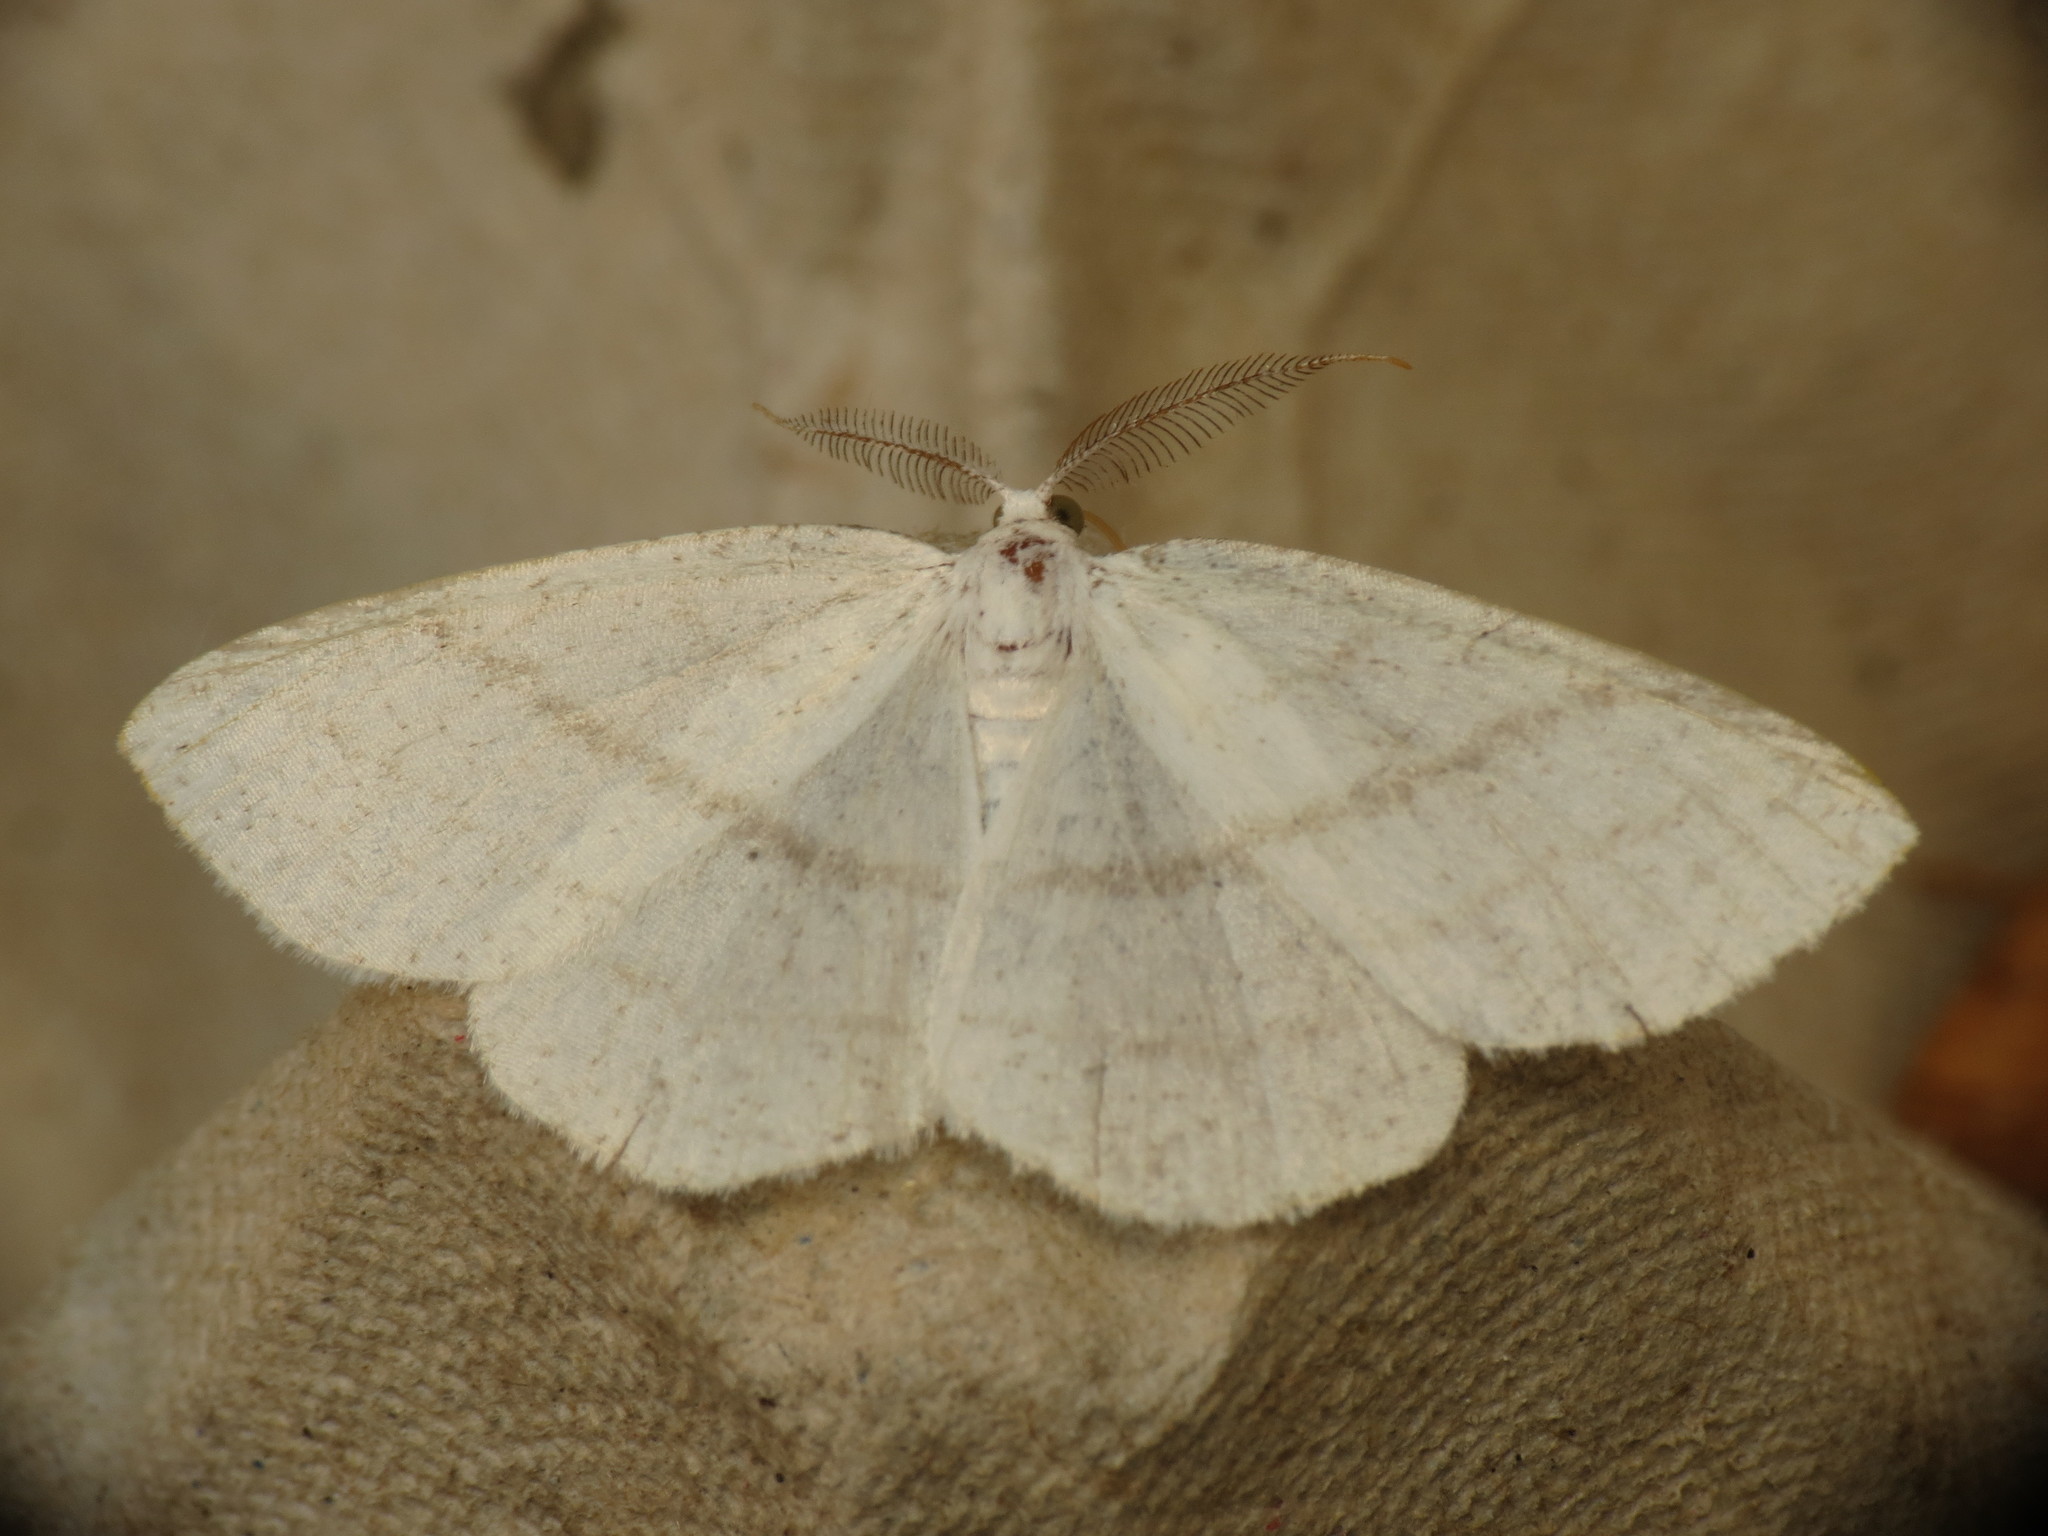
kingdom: Animalia
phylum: Arthropoda
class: Insecta
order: Lepidoptera
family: Geometridae
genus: Cabera
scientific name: Cabera pusaria
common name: Common white wave
